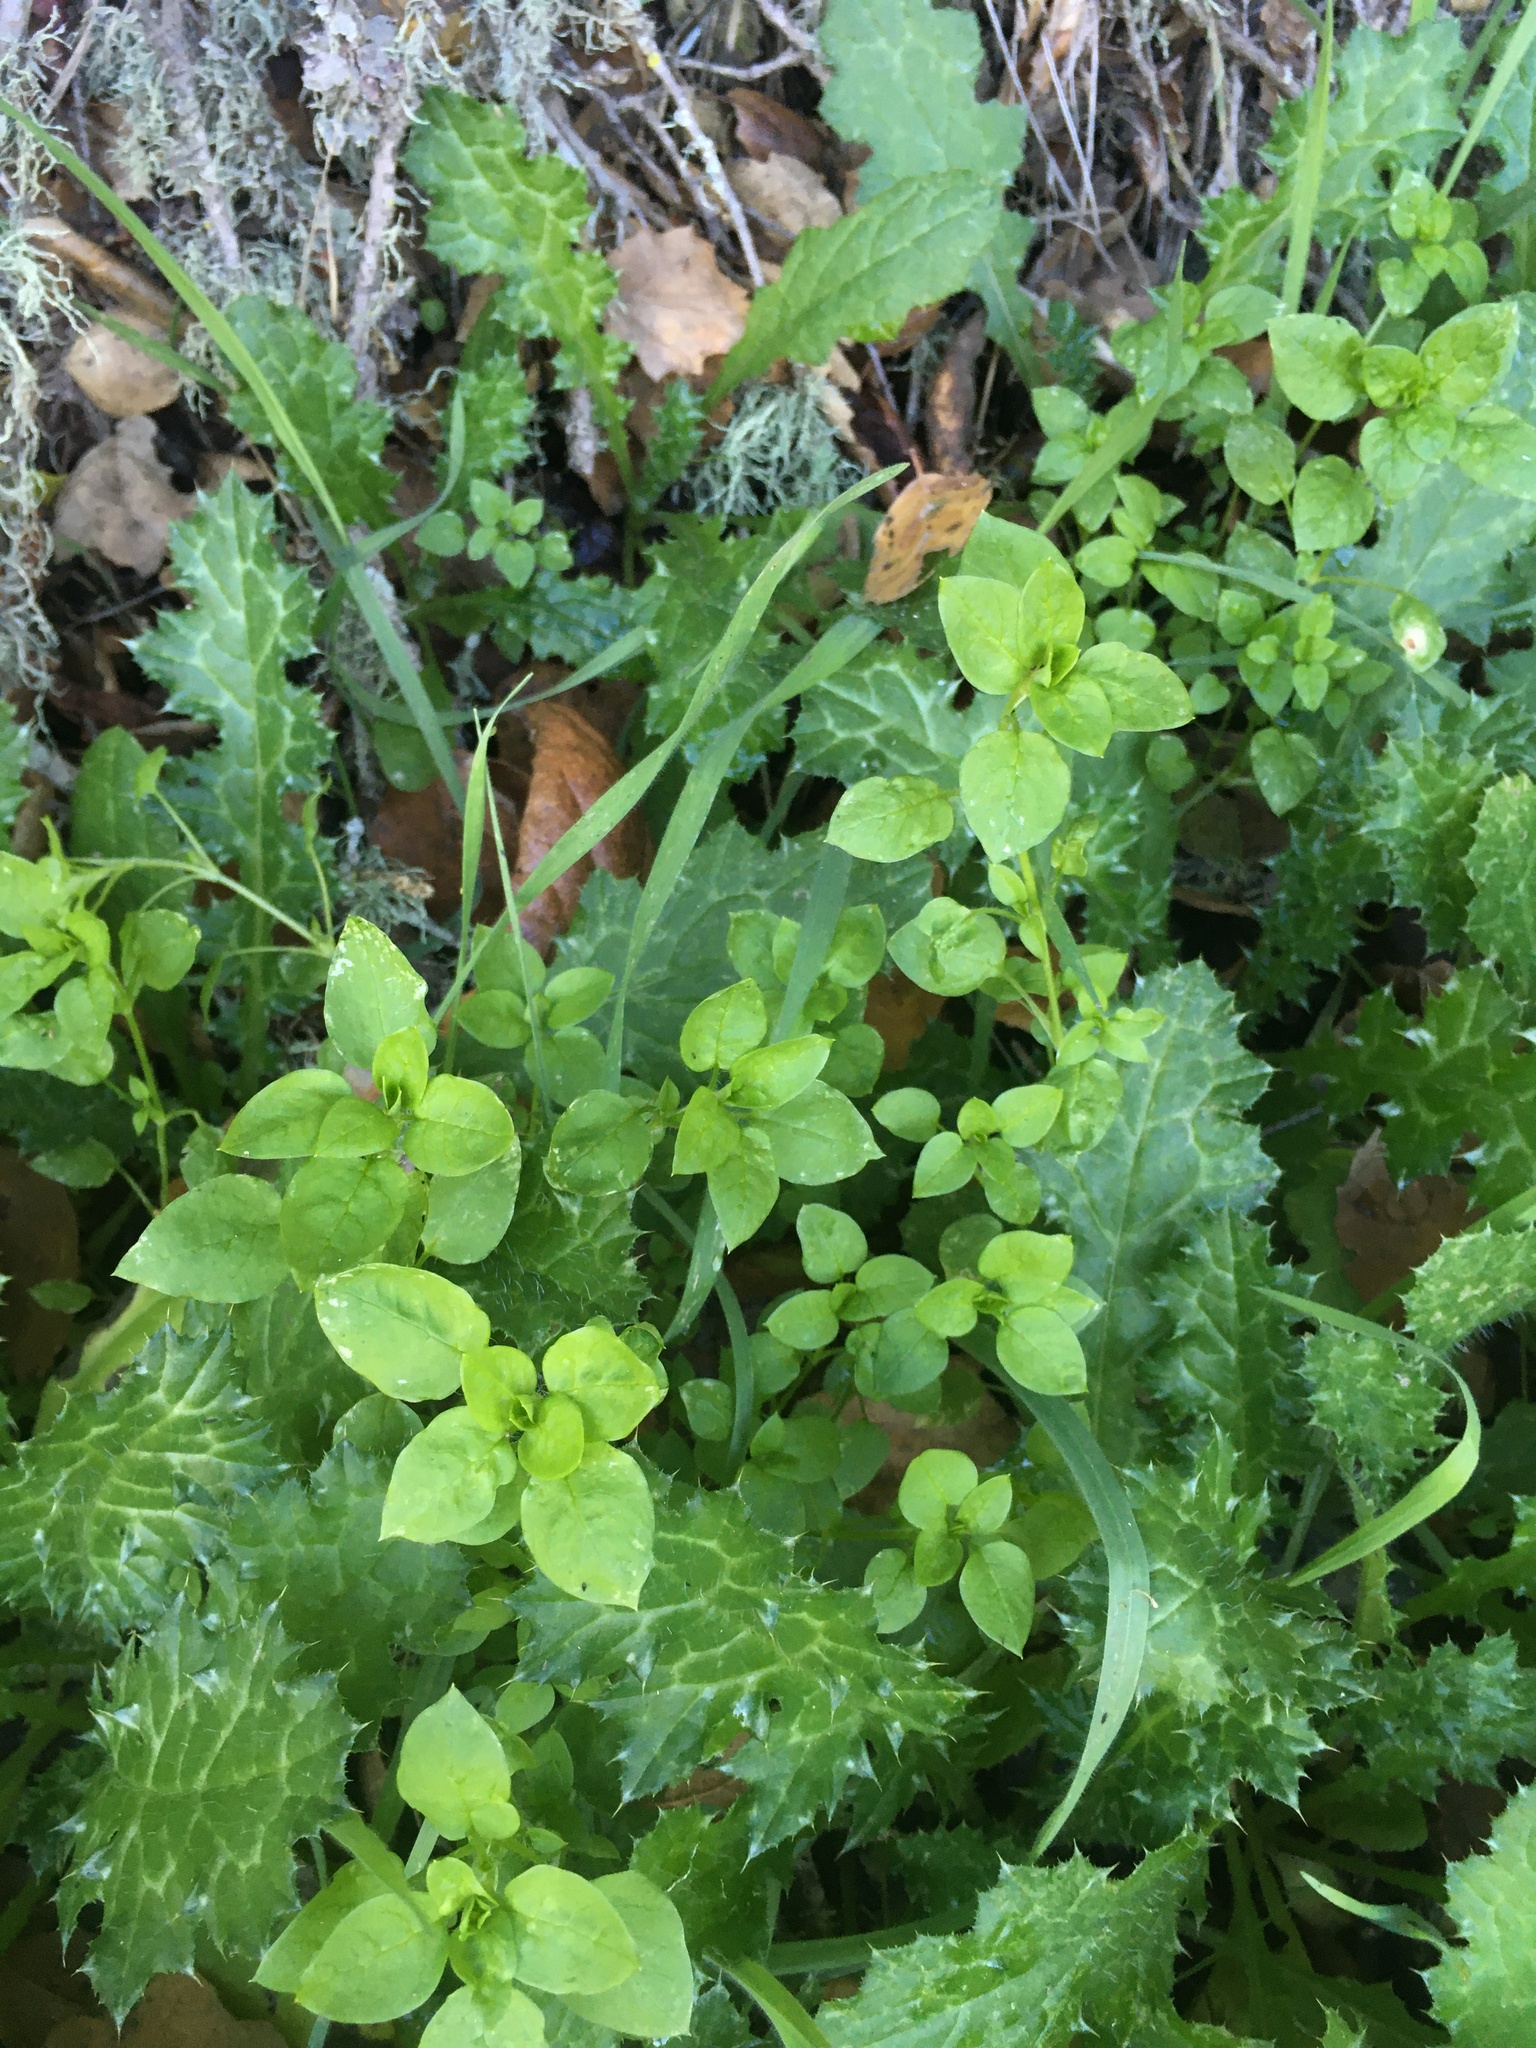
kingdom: Plantae
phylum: Tracheophyta
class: Magnoliopsida
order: Caryophyllales
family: Caryophyllaceae
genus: Stellaria
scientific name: Stellaria media
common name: Common chickweed
